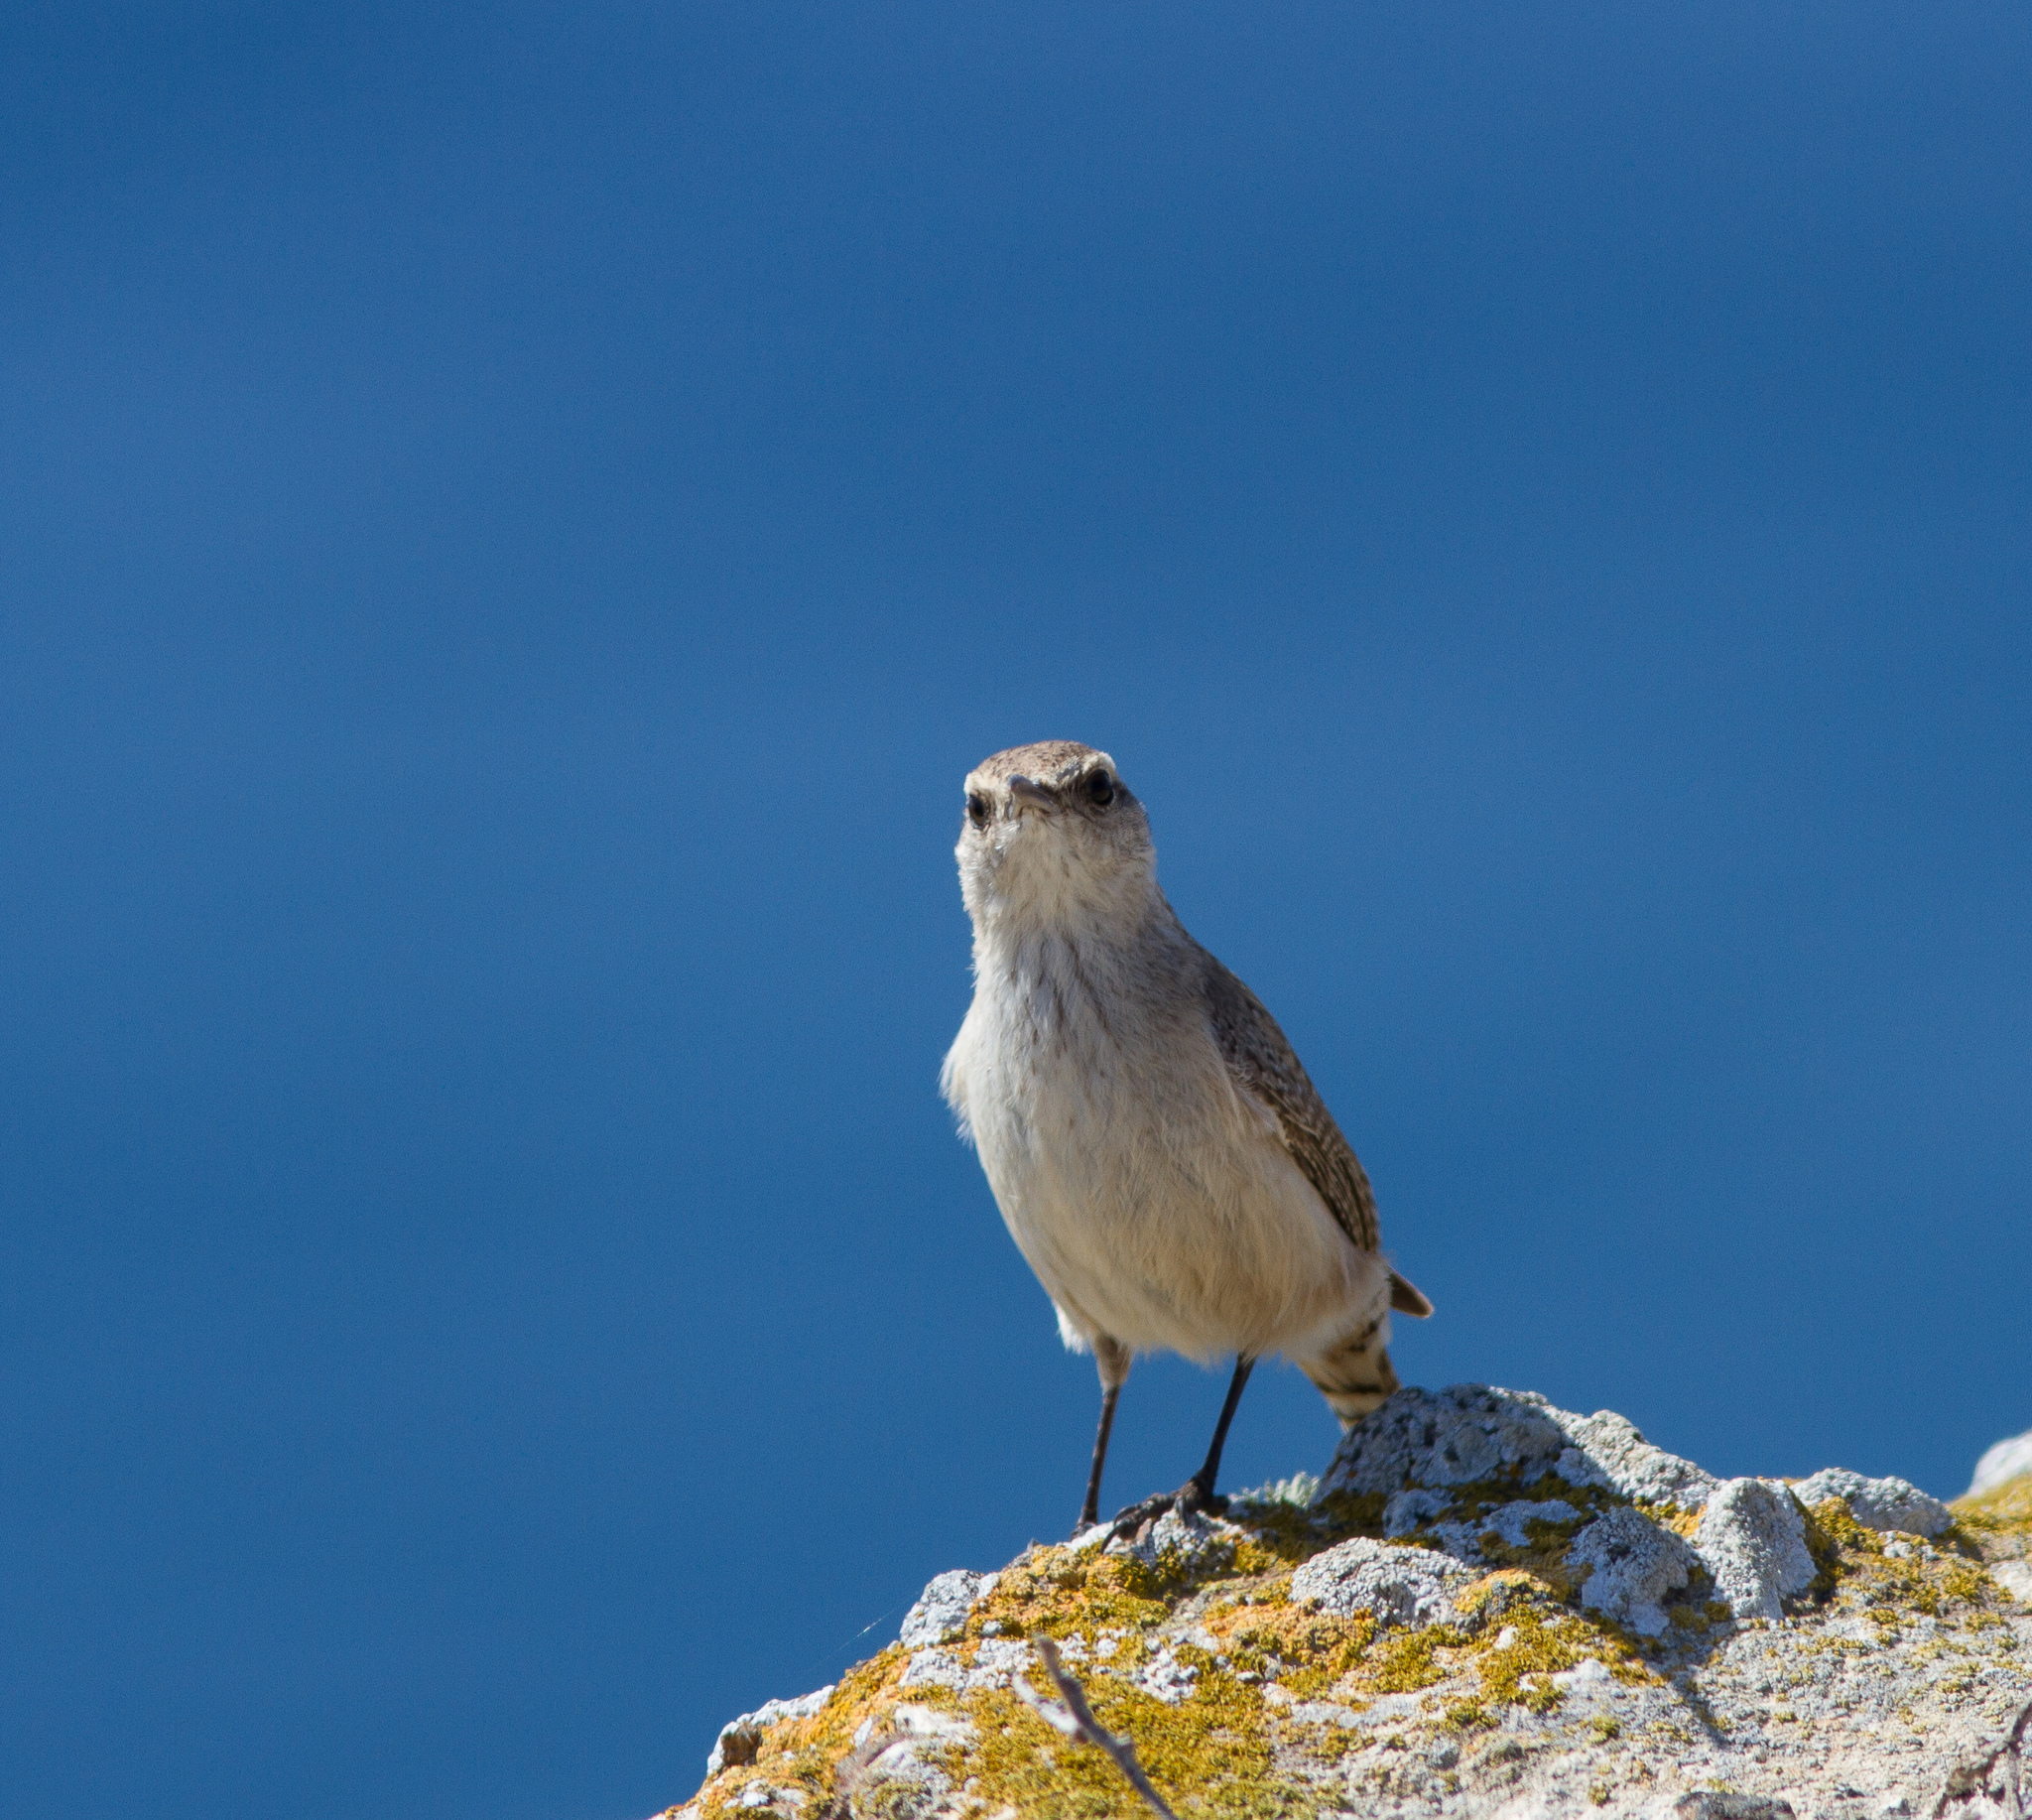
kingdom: Animalia
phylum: Chordata
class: Aves
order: Passeriformes
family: Troglodytidae
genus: Salpinctes
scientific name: Salpinctes obsoletus
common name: Rock wren
